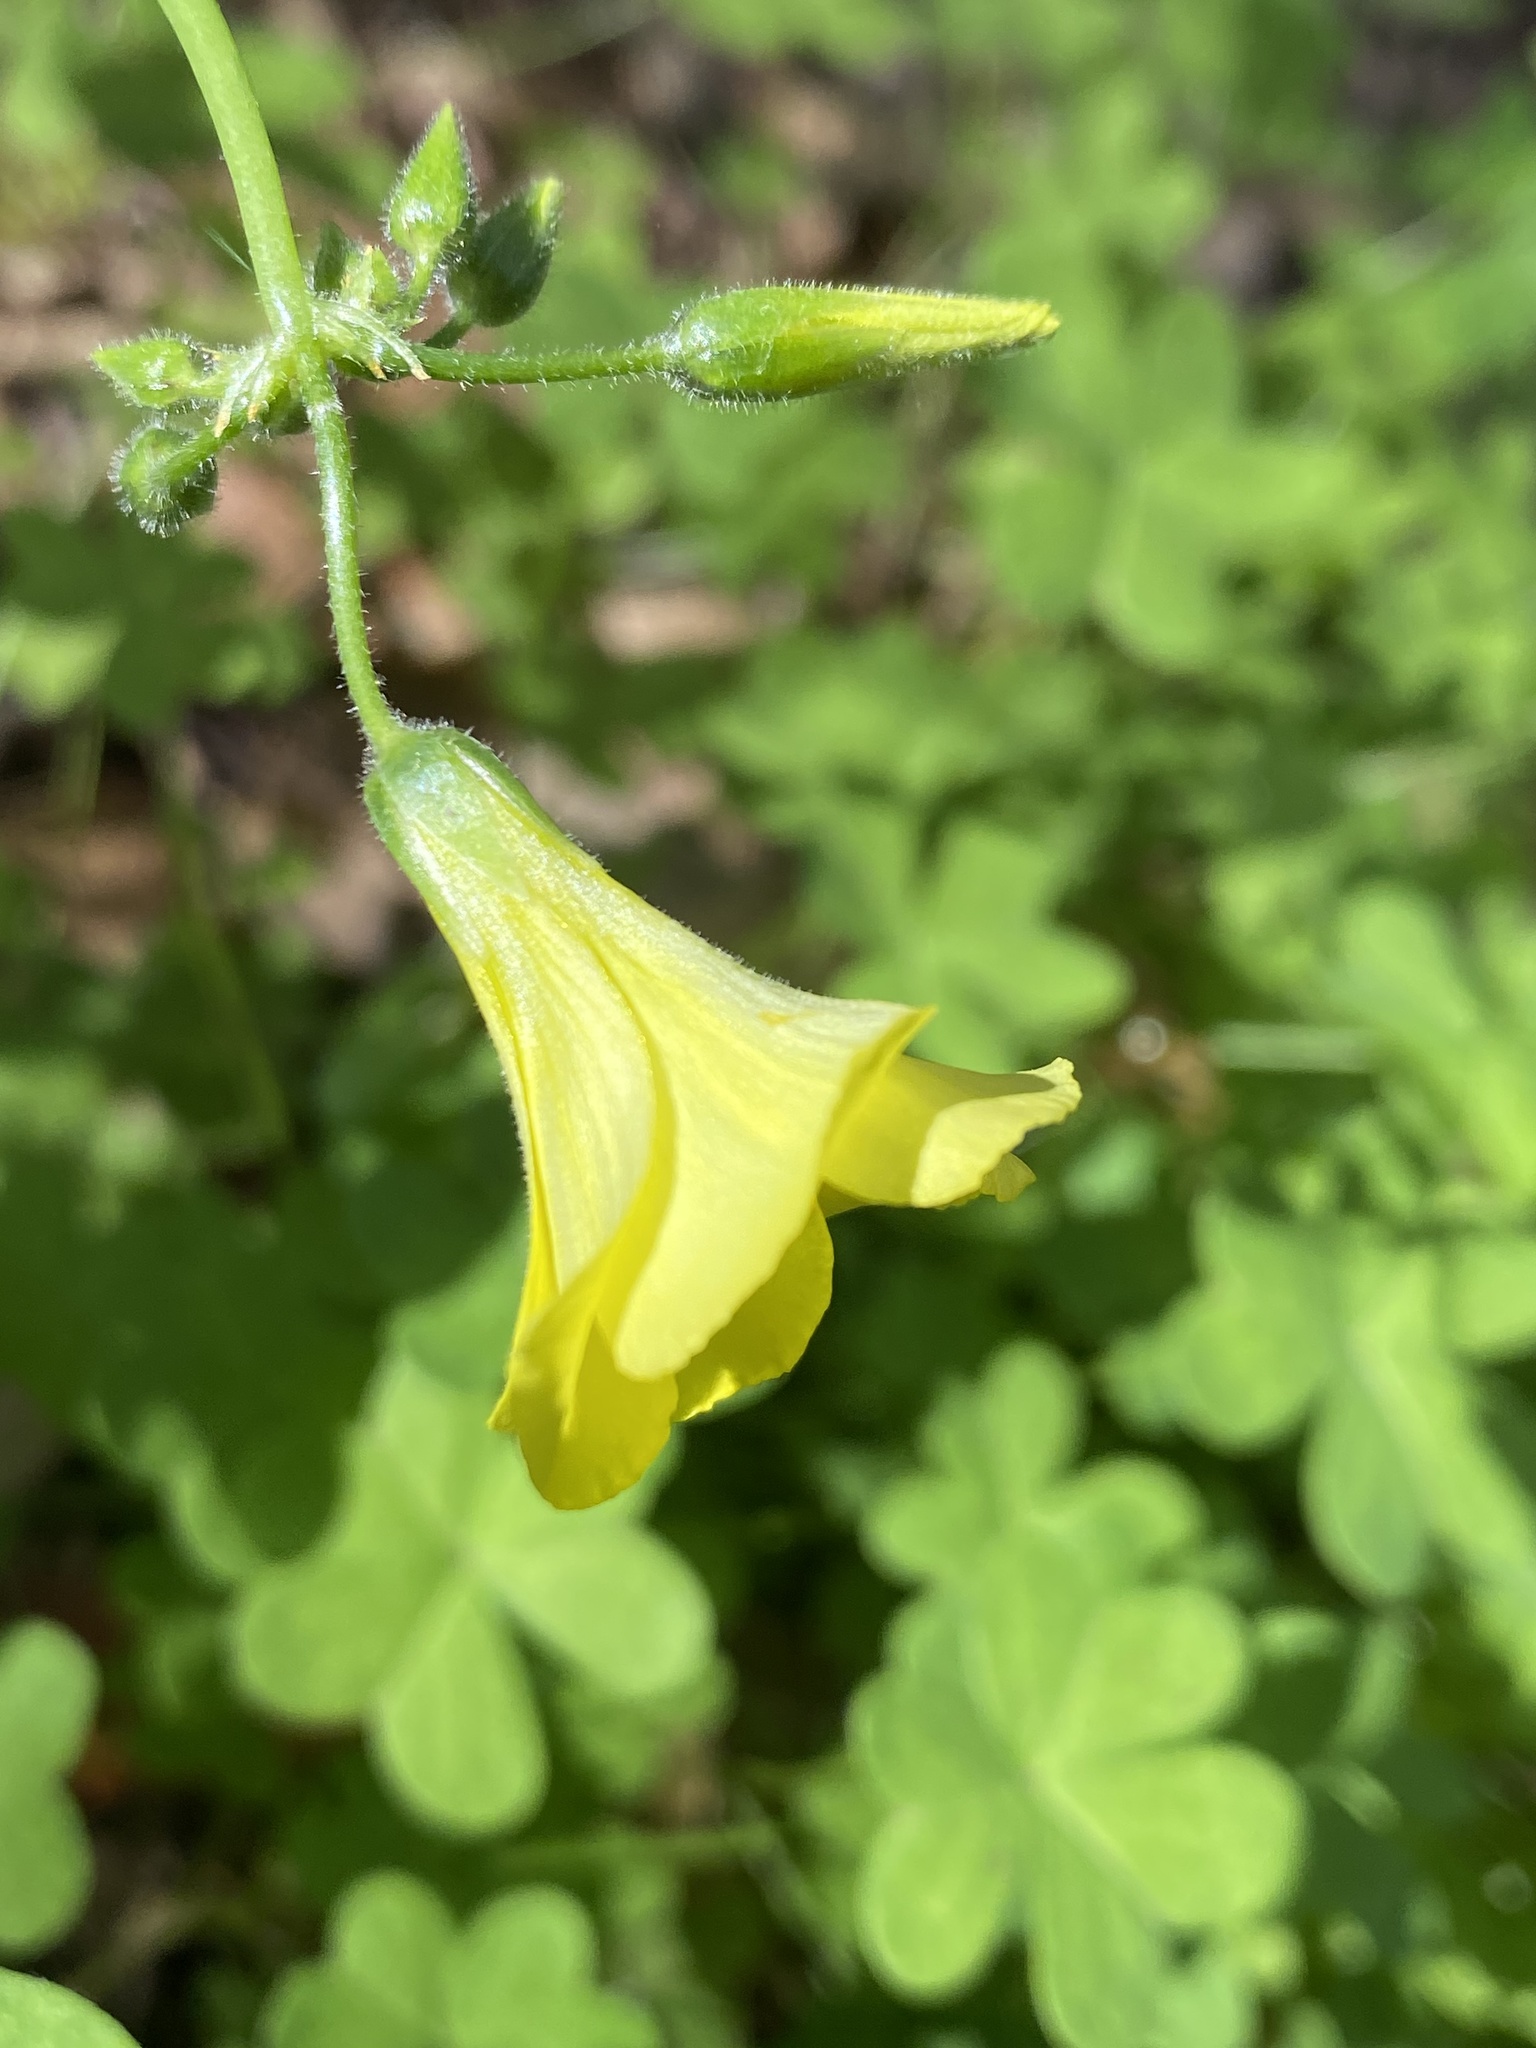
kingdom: Plantae
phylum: Tracheophyta
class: Magnoliopsida
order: Oxalidales
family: Oxalidaceae
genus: Oxalis
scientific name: Oxalis pes-caprae
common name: Bermuda-buttercup
